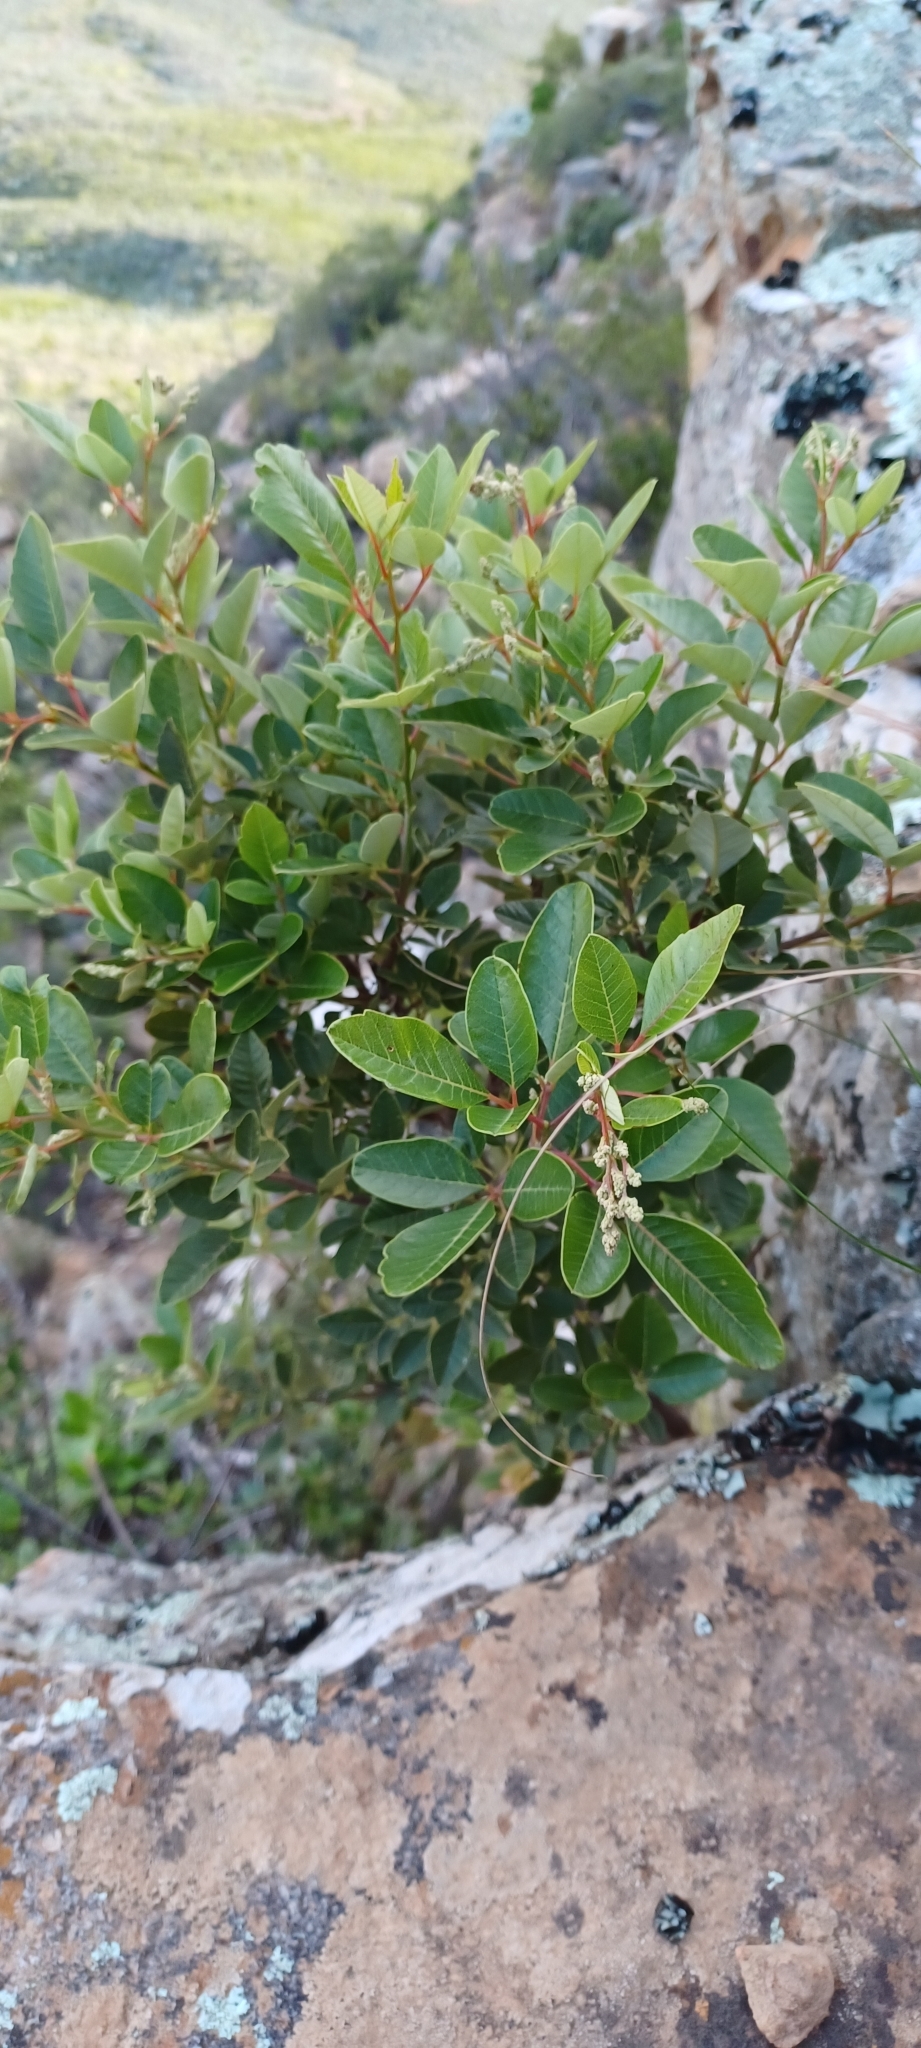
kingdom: Plantae
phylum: Tracheophyta
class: Magnoliopsida
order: Sapindales
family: Anacardiaceae
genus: Searsia
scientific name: Searsia tomentosa
